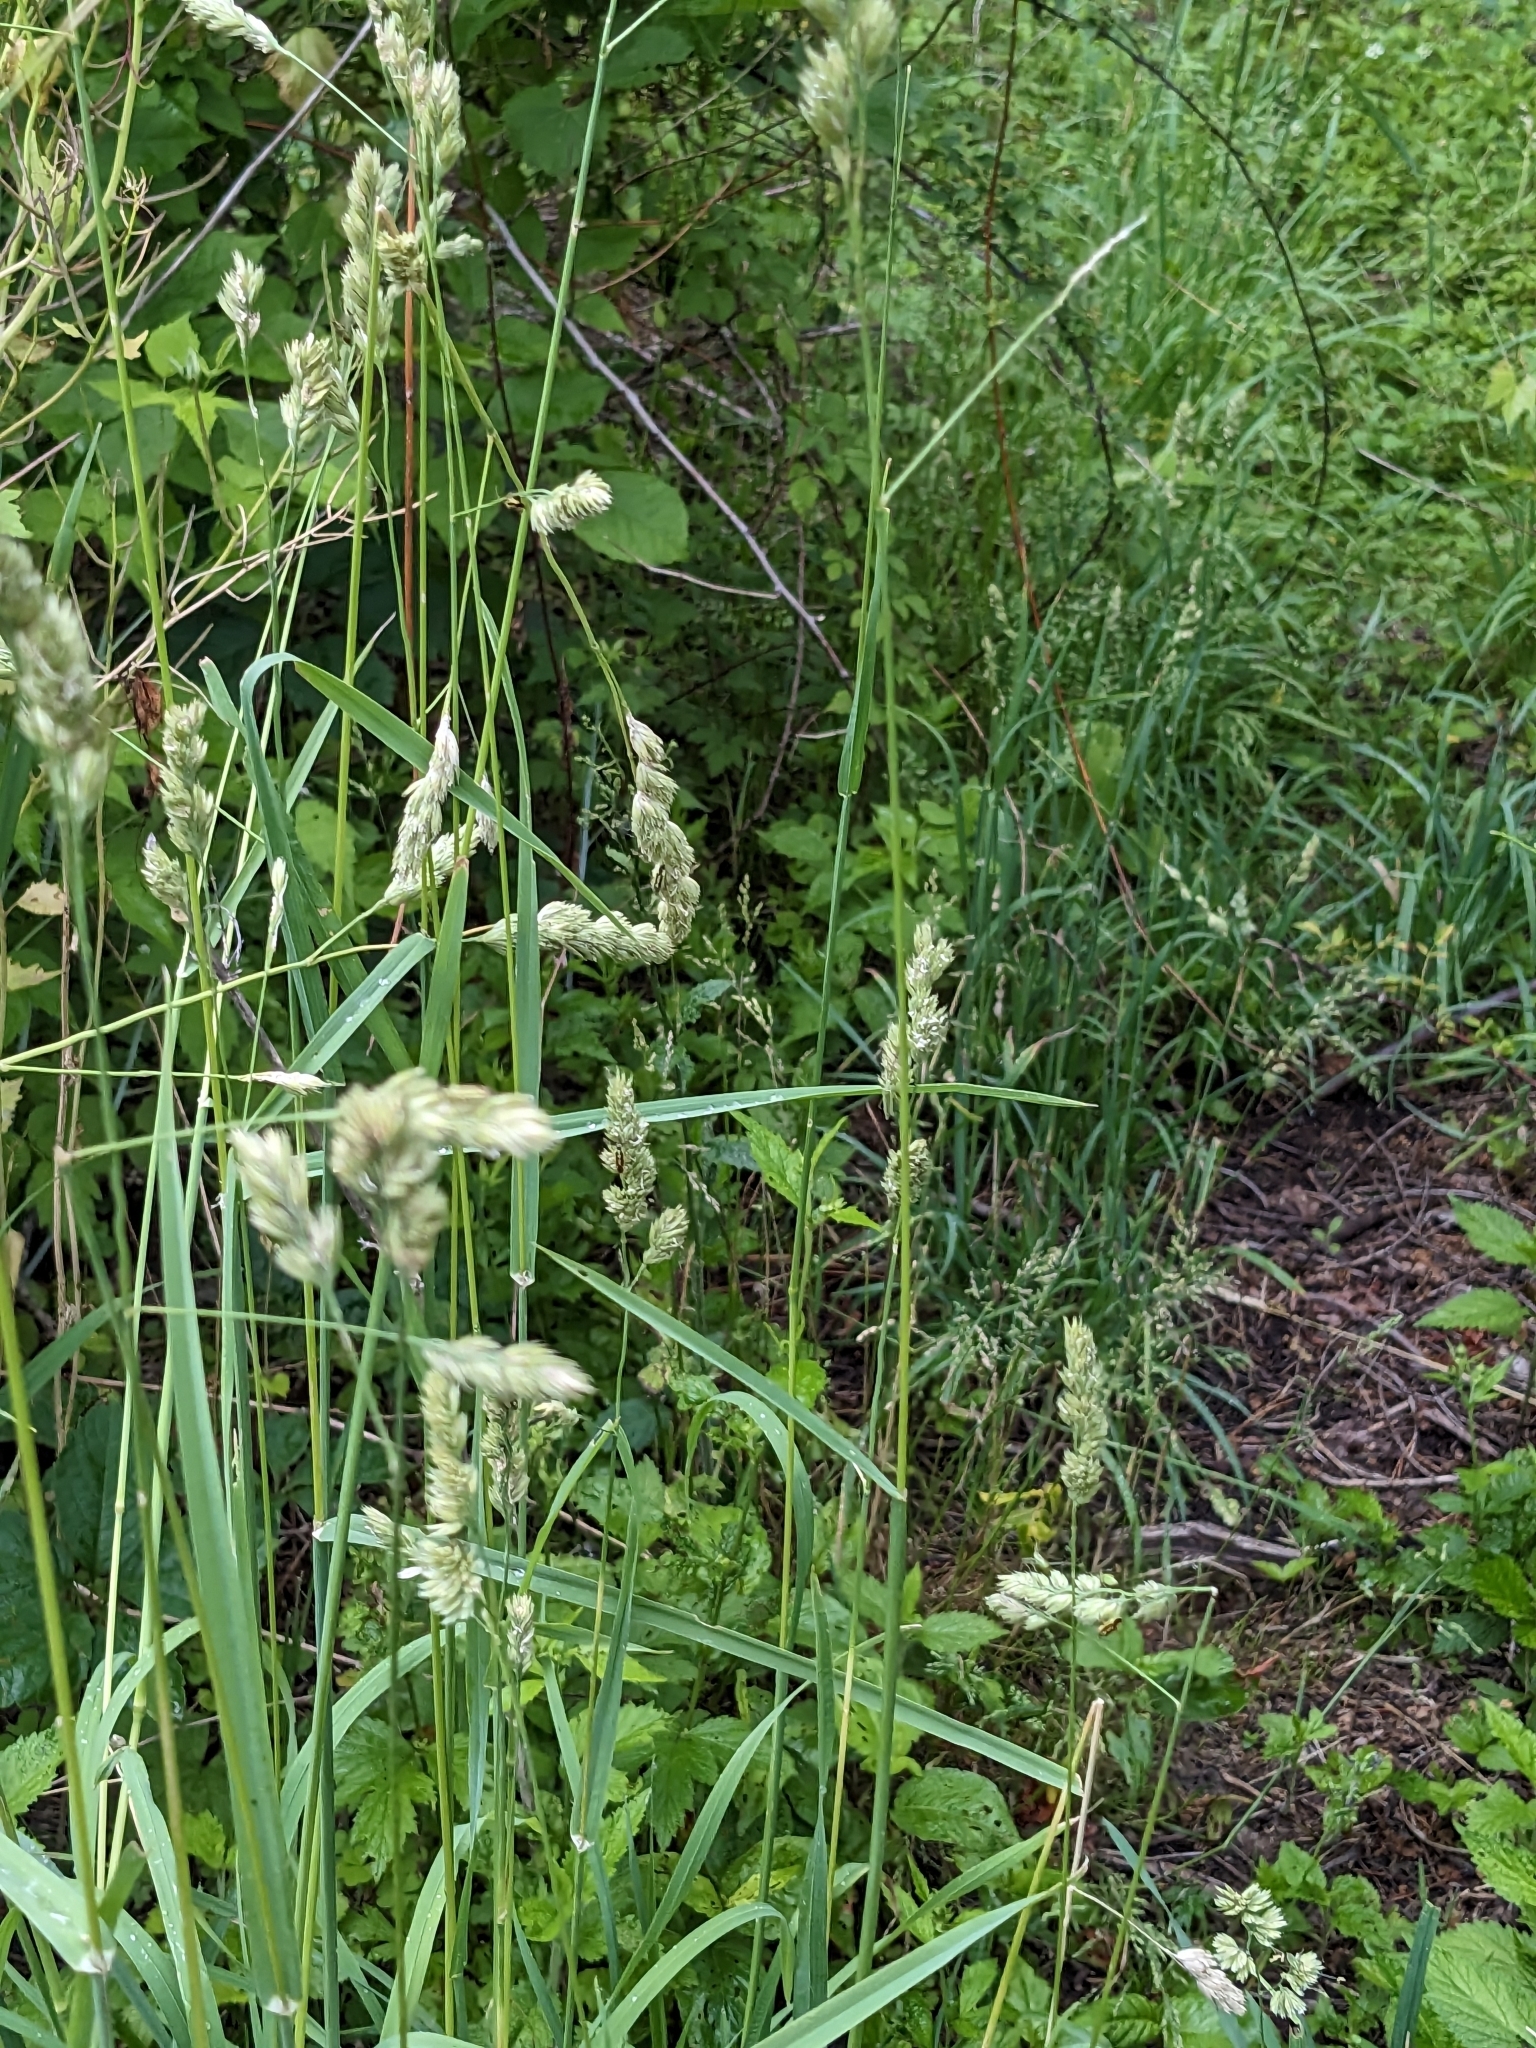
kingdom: Plantae
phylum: Tracheophyta
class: Liliopsida
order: Poales
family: Poaceae
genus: Dactylis
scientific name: Dactylis glomerata
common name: Orchardgrass
